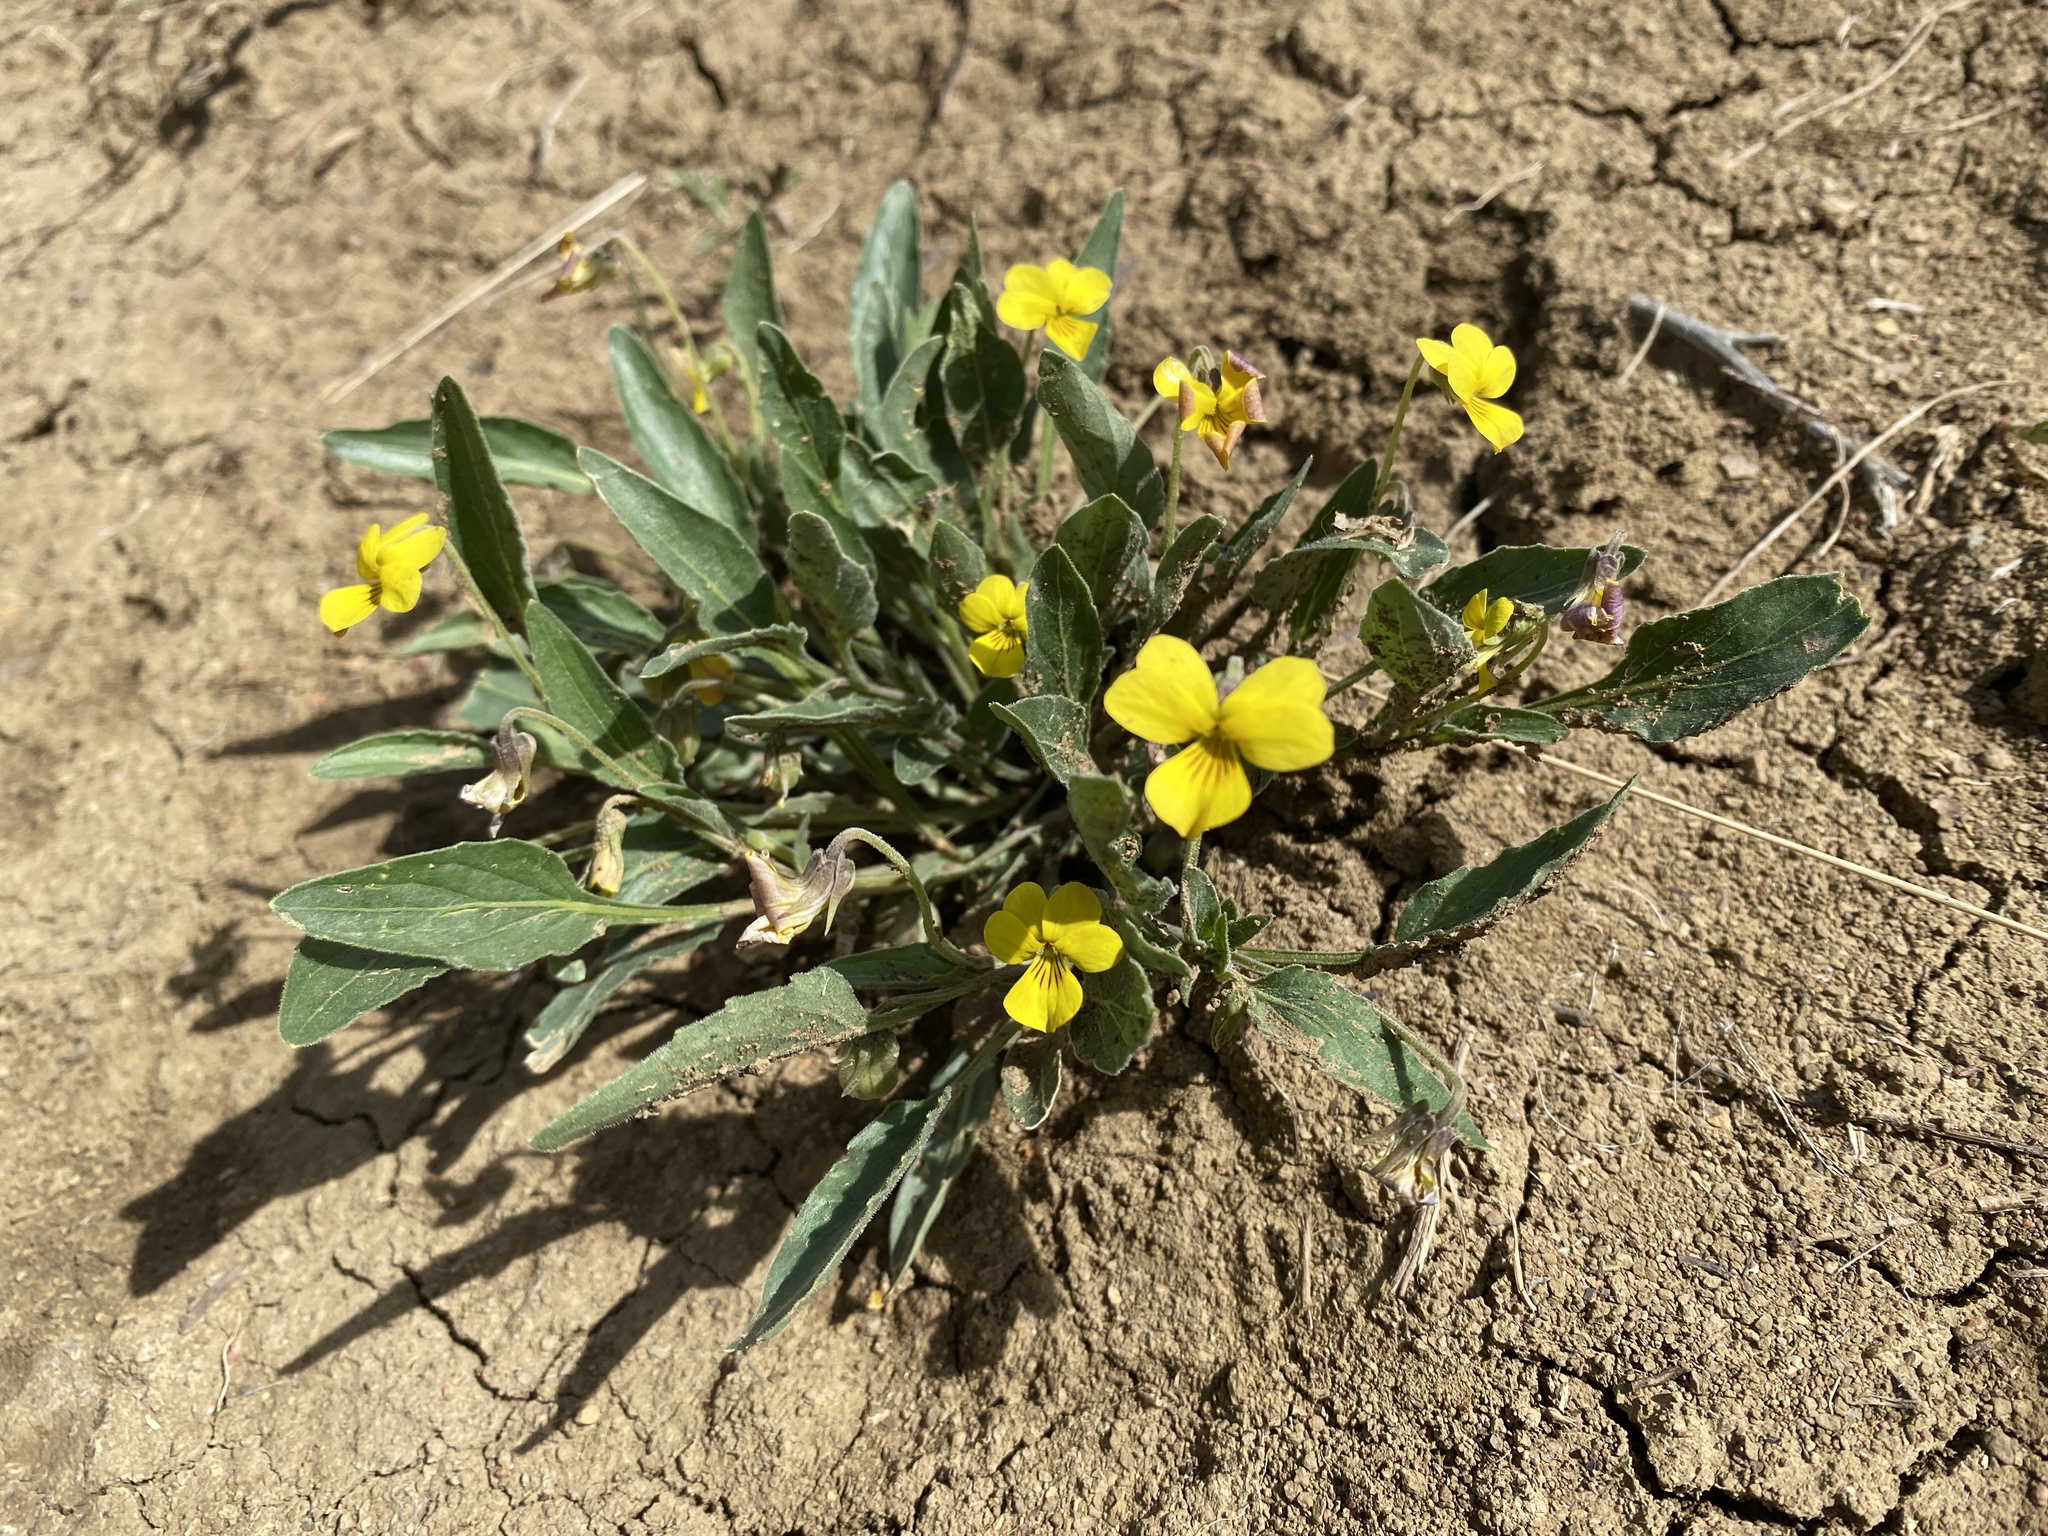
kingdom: Plantae
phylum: Tracheophyta
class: Magnoliopsida
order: Malpighiales
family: Violaceae
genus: Viola
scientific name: Viola nuttallii
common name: Yellow prairie violet
